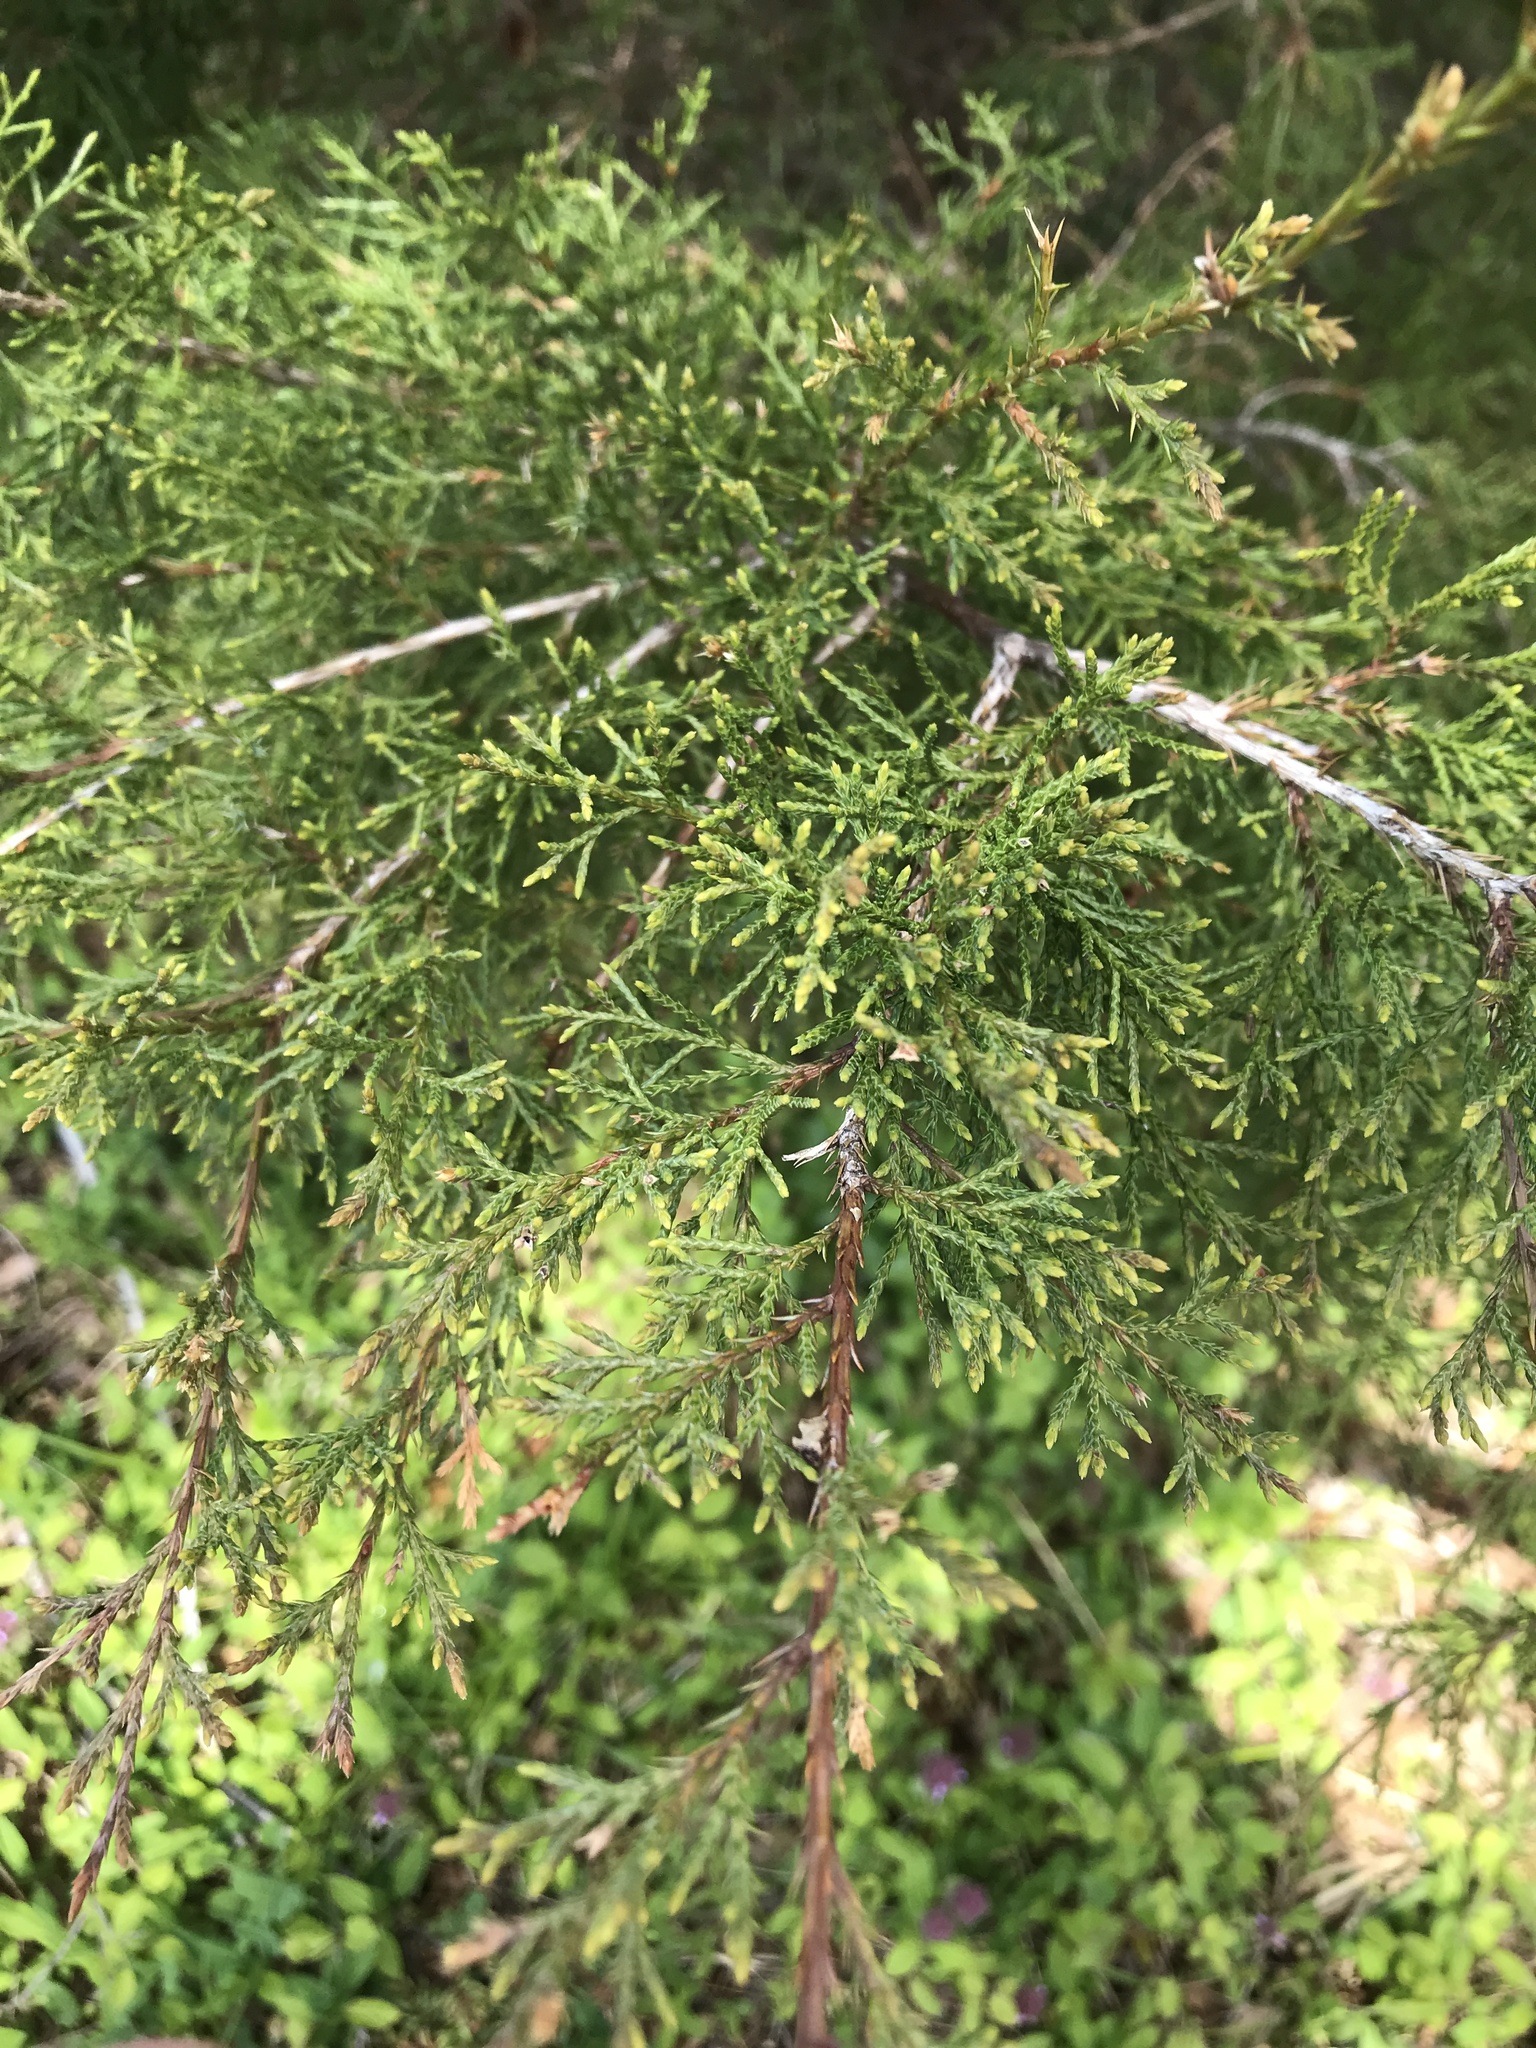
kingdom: Plantae
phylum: Tracheophyta
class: Pinopsida
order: Pinales
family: Cupressaceae
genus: Juniperus
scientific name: Juniperus virginiana
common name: Red juniper
